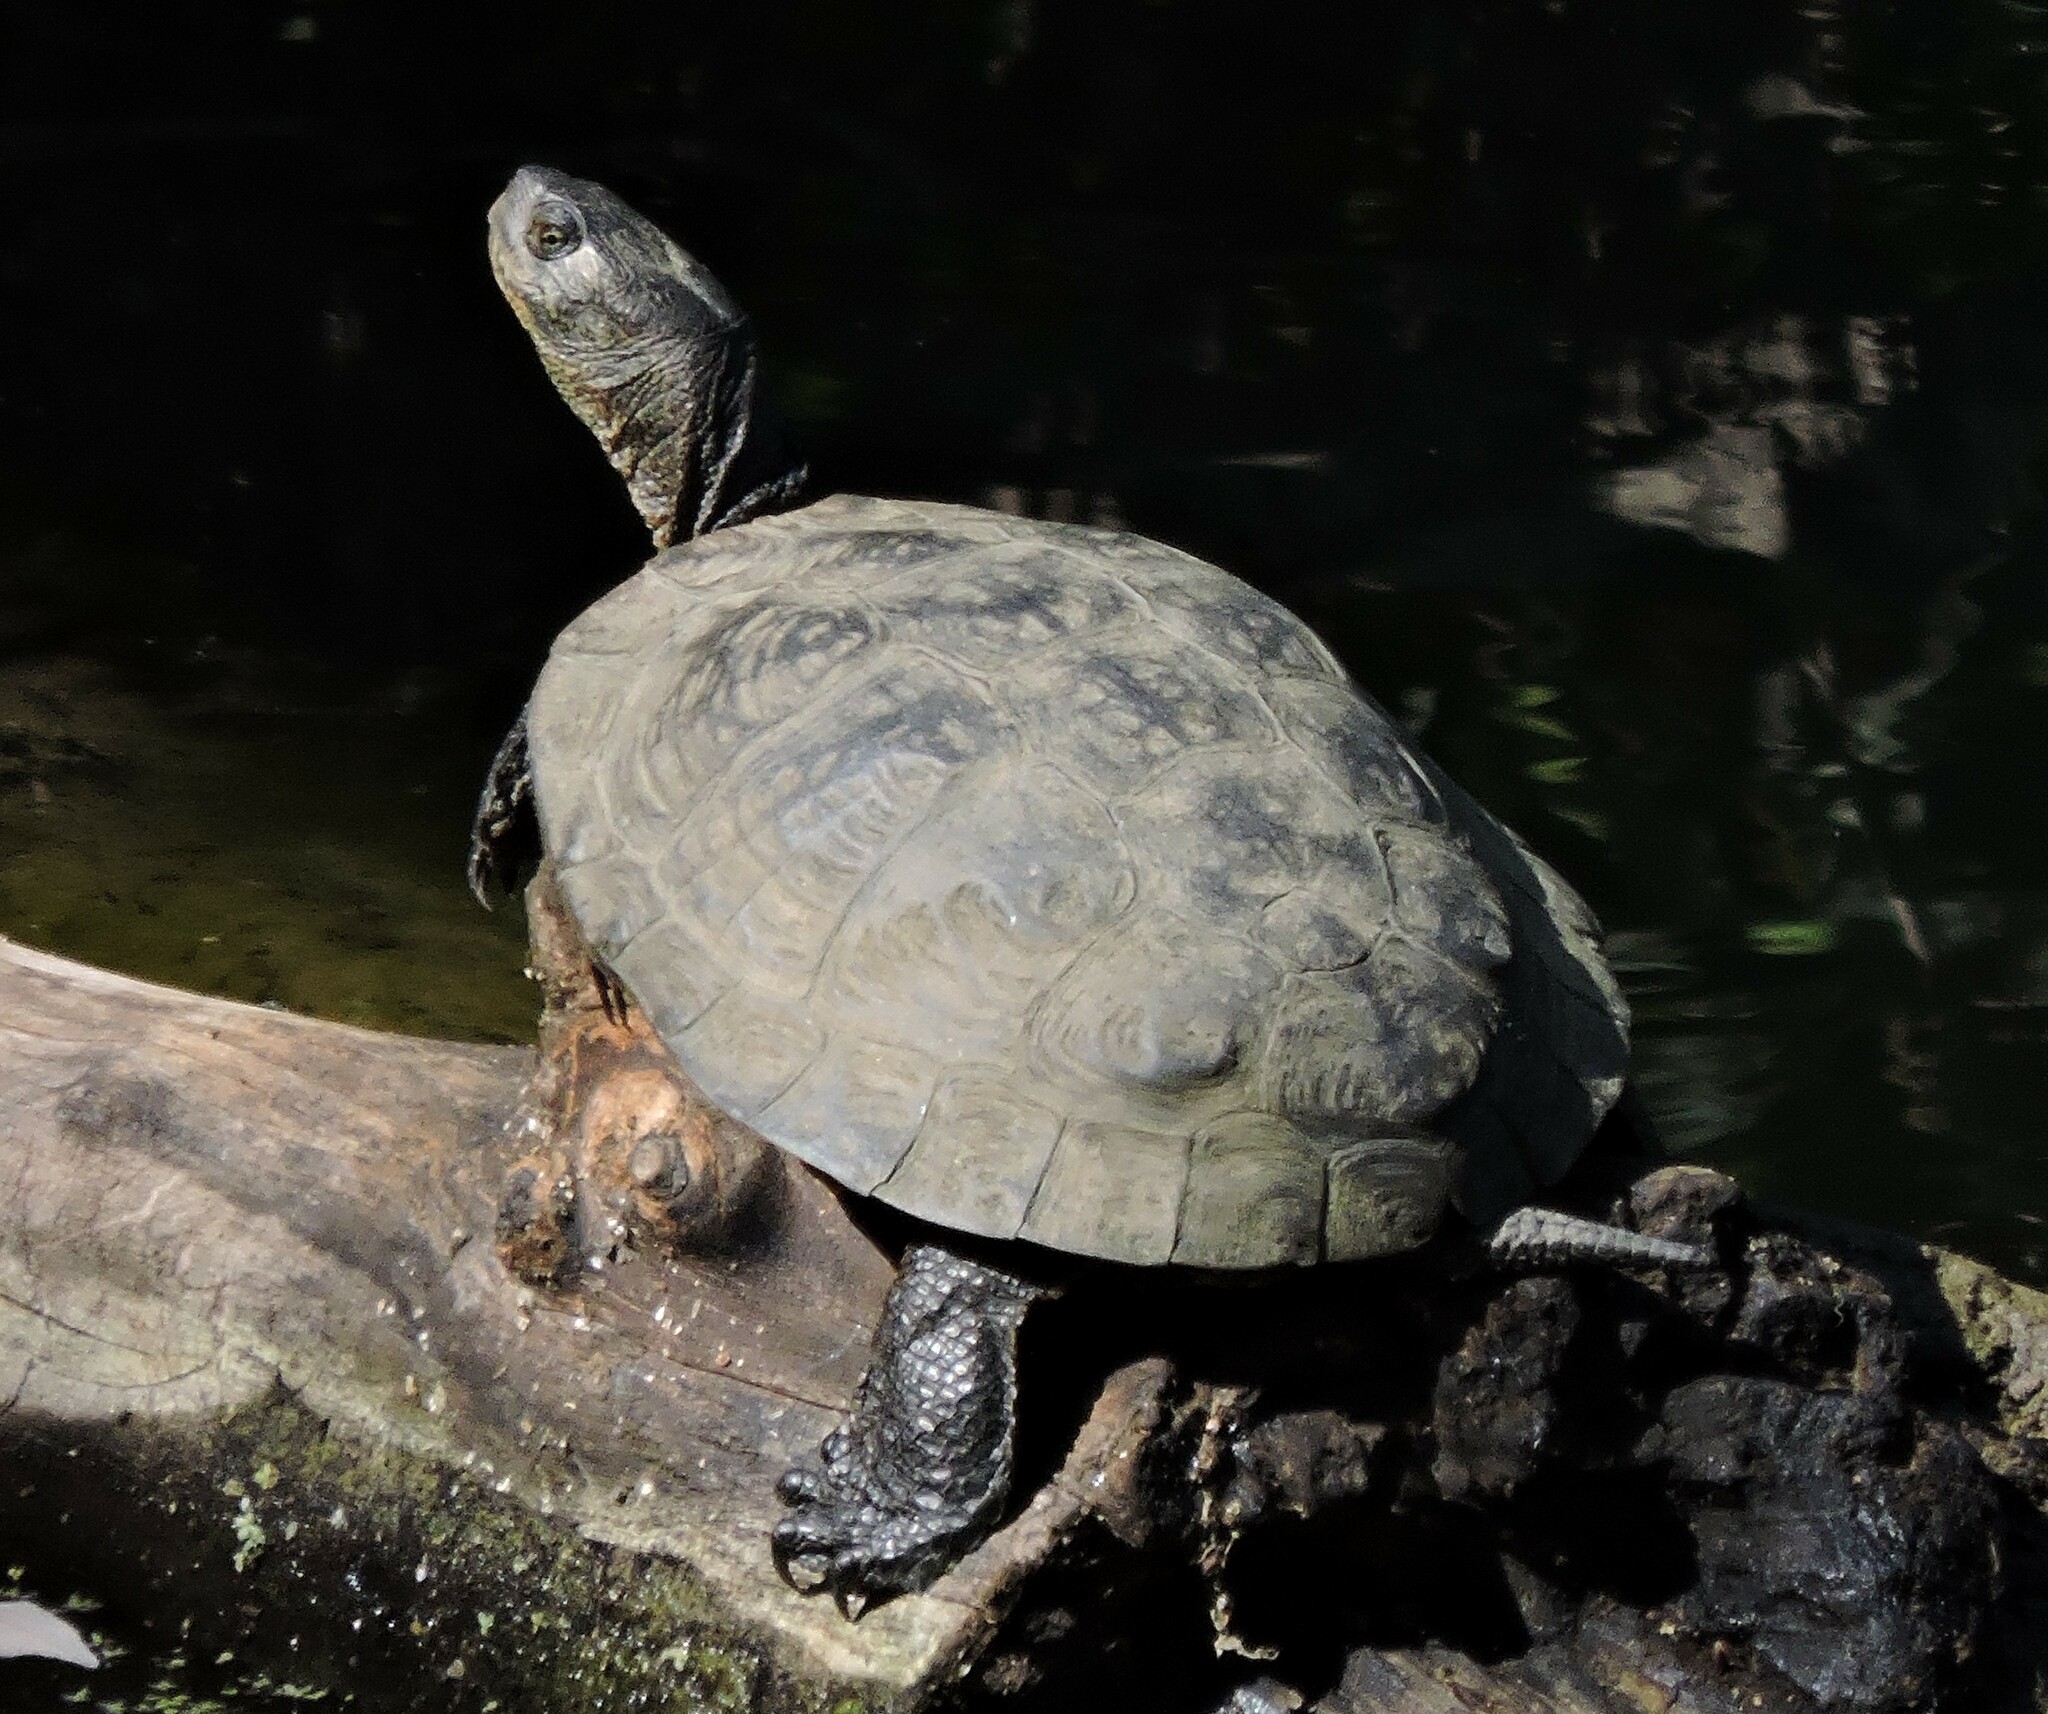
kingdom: Animalia
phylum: Chordata
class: Testudines
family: Emydidae
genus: Actinemys
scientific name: Actinemys marmorata
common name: Western pond turtle
